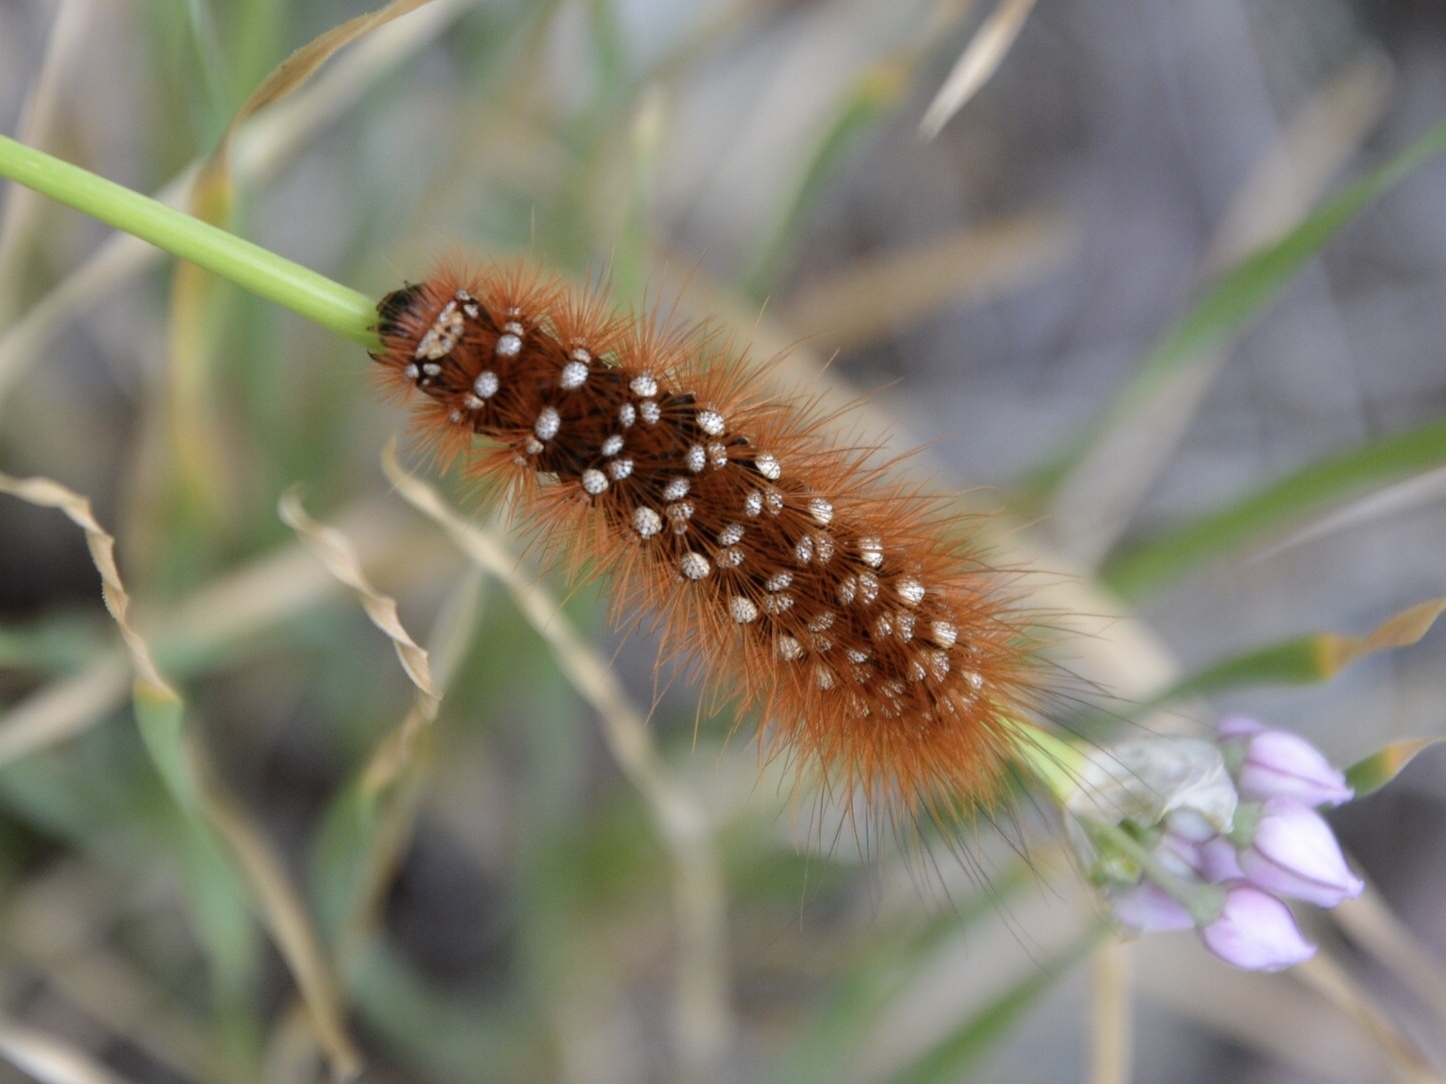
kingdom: Animalia
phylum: Arthropoda
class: Insecta
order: Lepidoptera
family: Erebidae
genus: Arctia
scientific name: Arctia intercalaris
